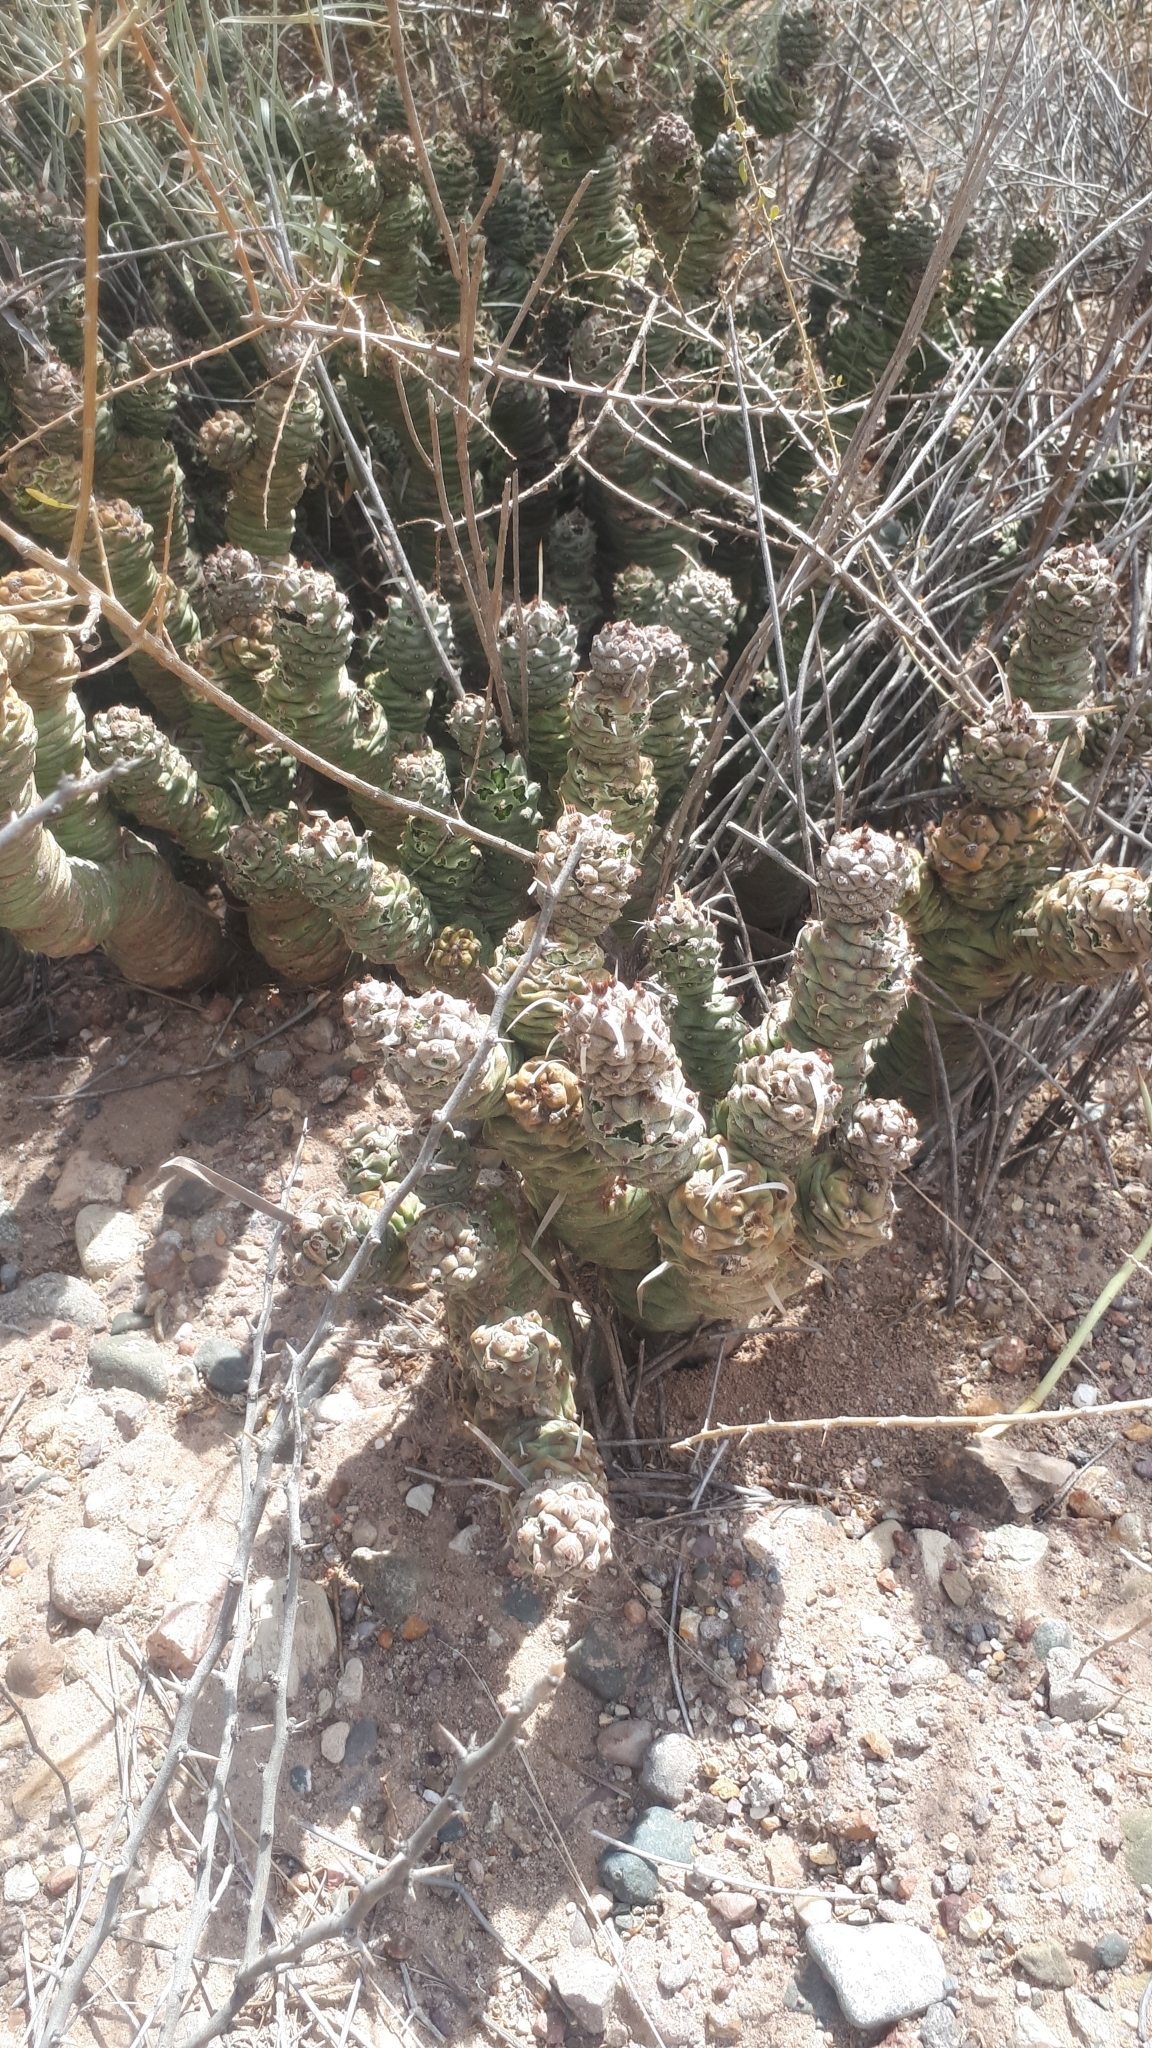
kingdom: Plantae
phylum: Tracheophyta
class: Magnoliopsida
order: Caryophyllales
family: Cactaceae
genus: Tephrocactus
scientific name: Tephrocactus articulatus
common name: Paper cactus
